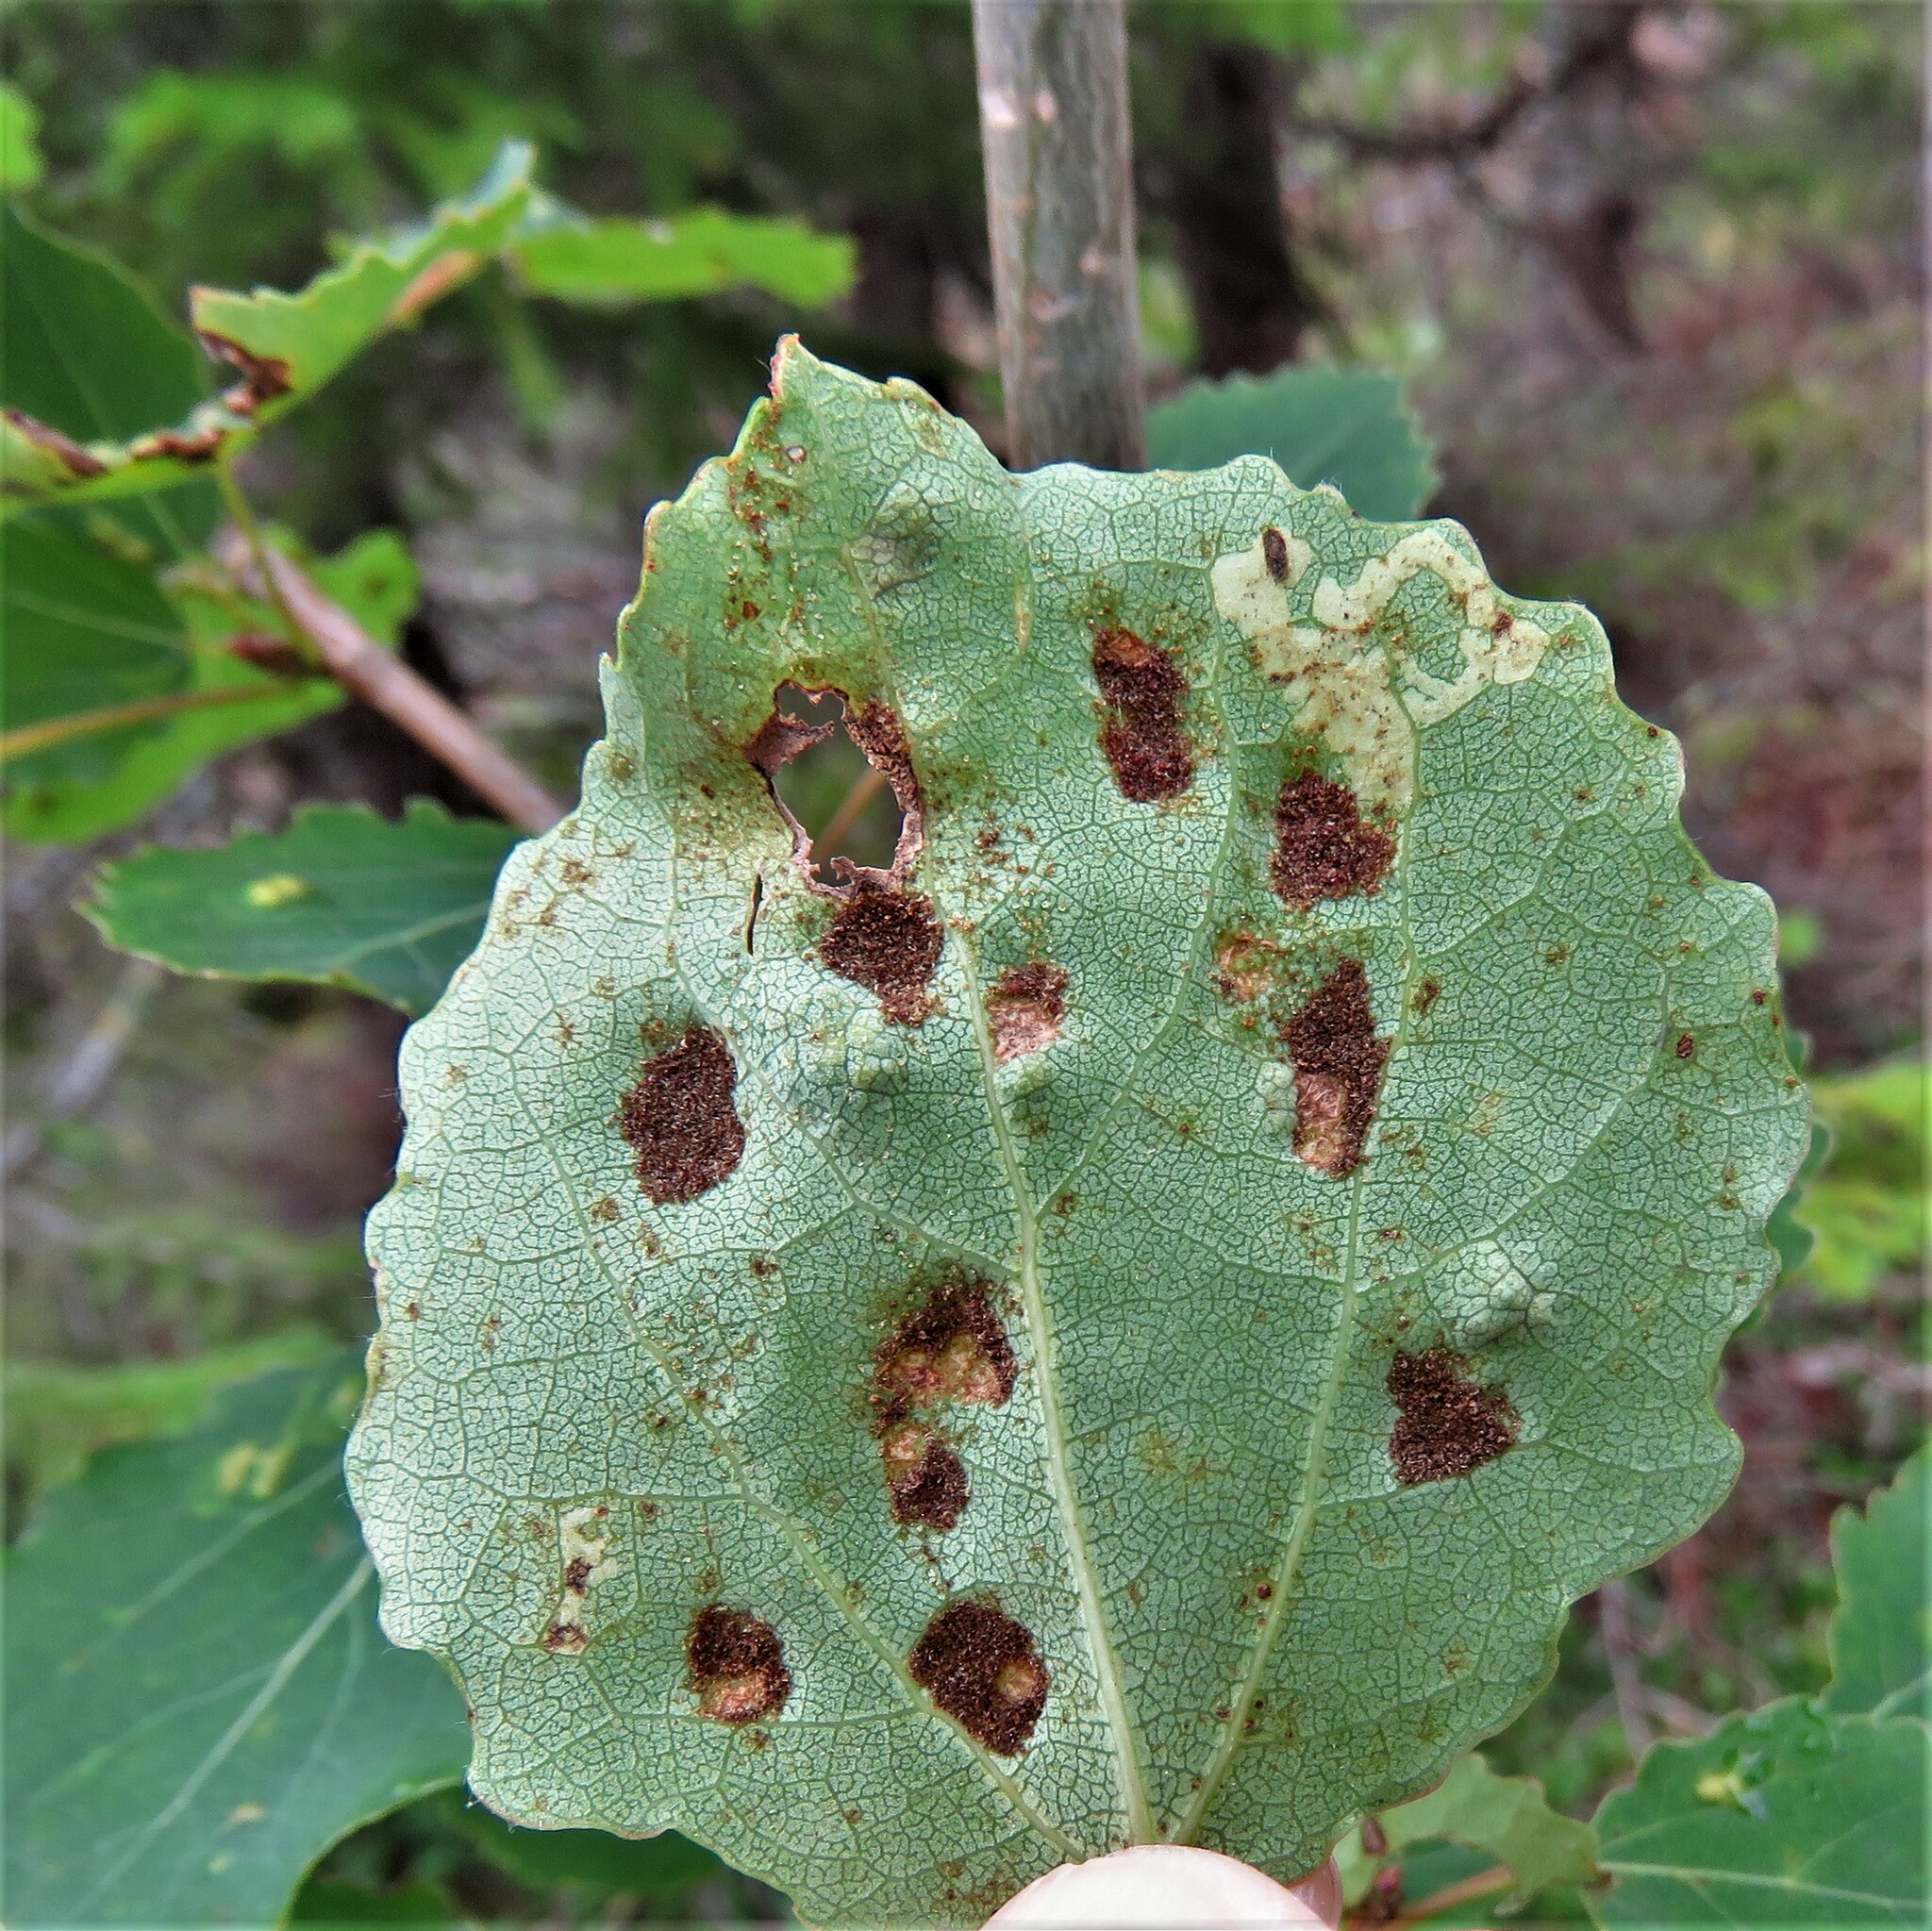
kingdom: Animalia
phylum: Arthropoda
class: Arachnida
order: Trombidiformes
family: Eriophyidae
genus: Phyllocoptes
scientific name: Phyllocoptes populi
